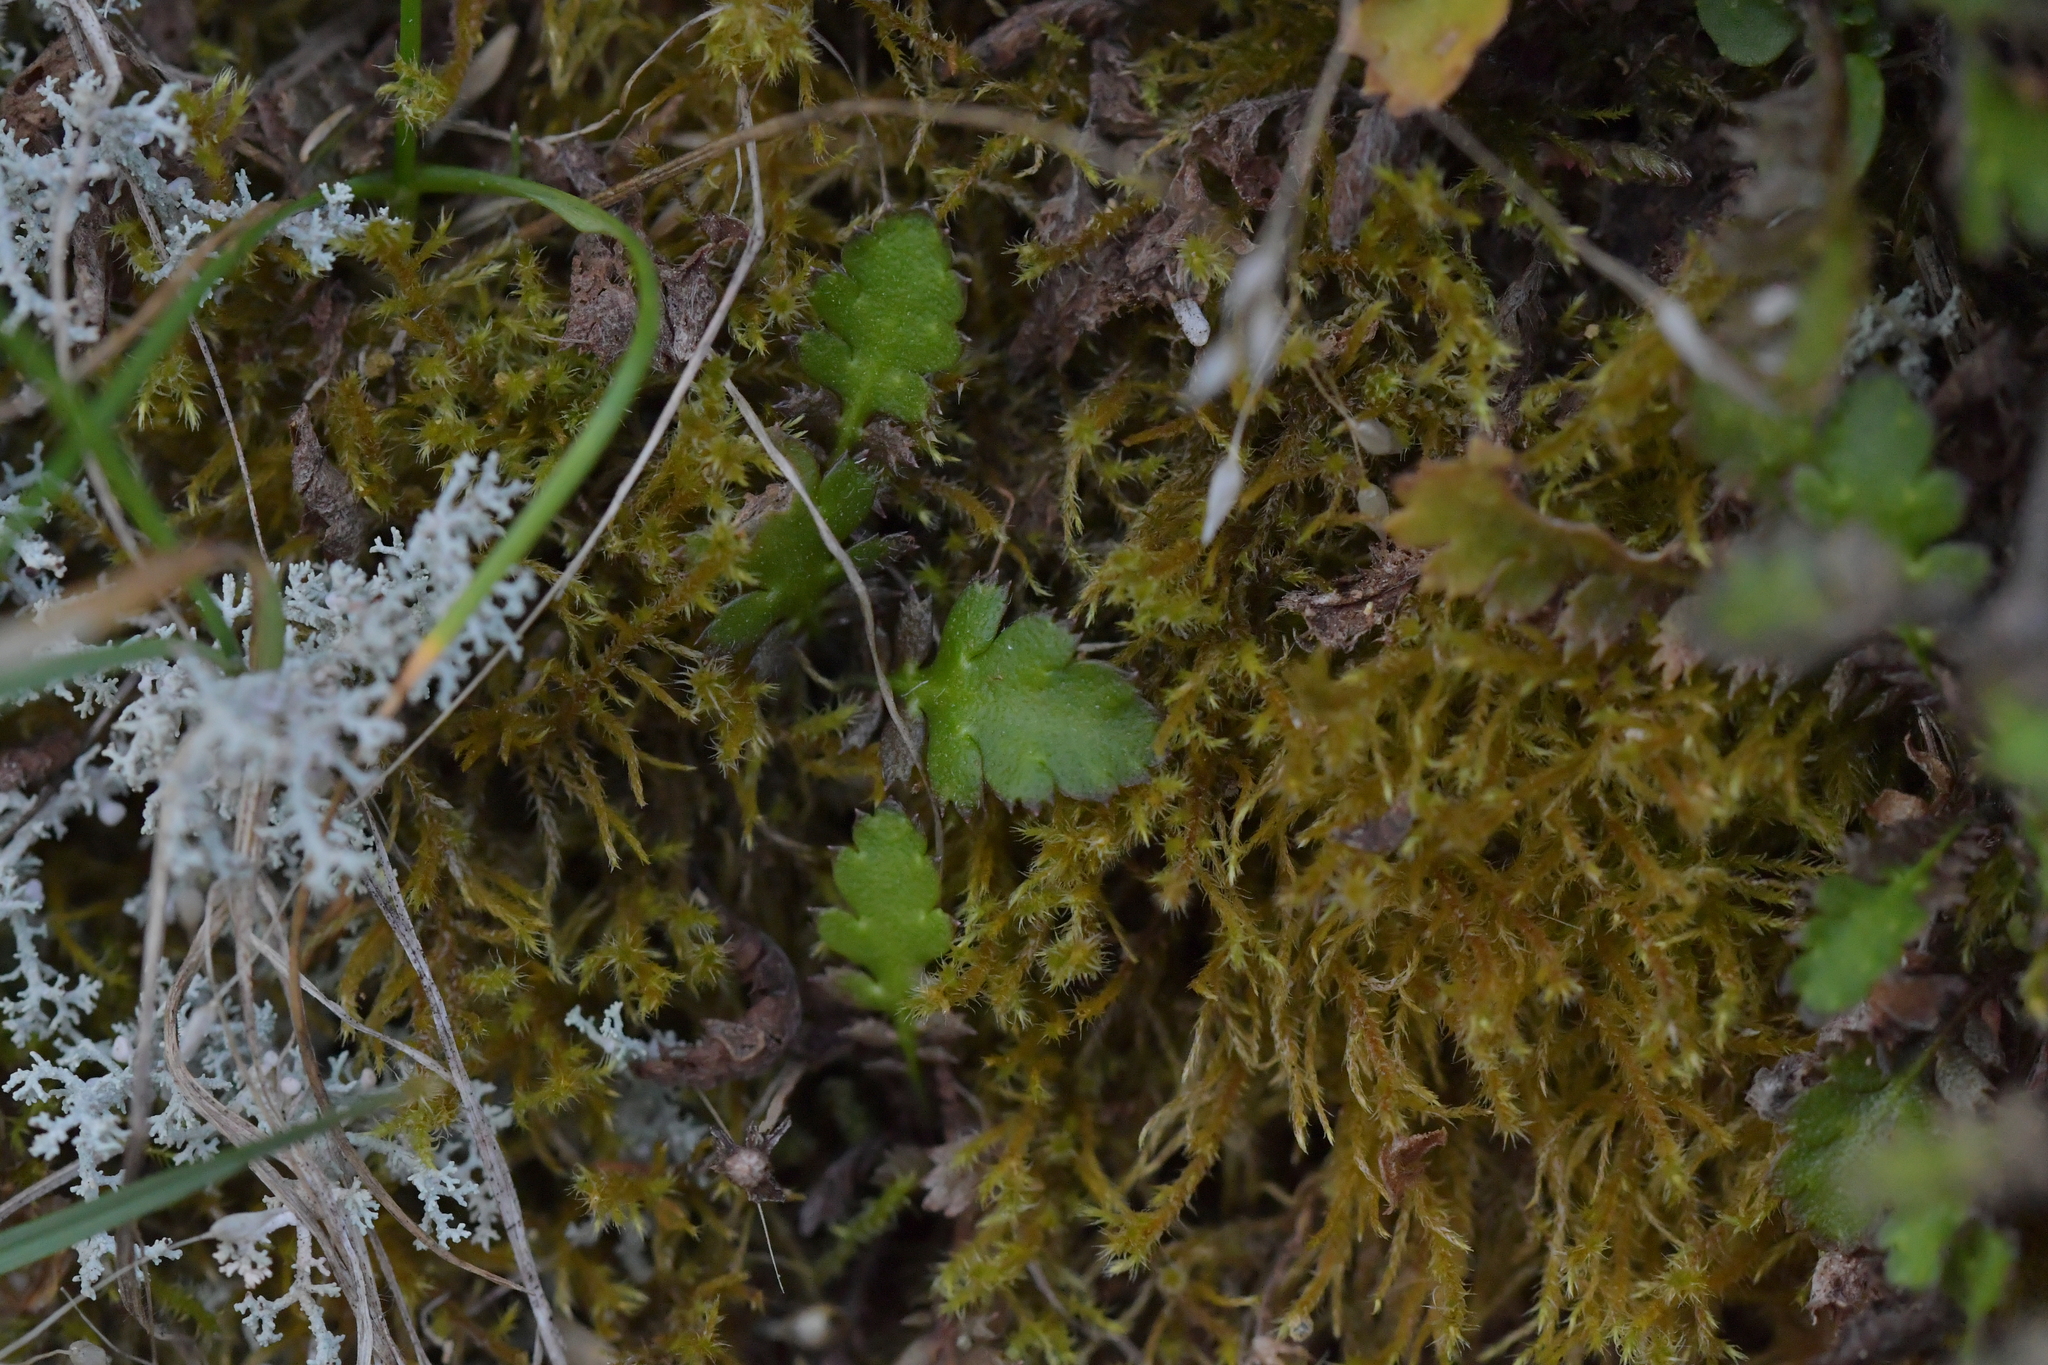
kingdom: Plantae
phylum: Tracheophyta
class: Magnoliopsida
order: Asterales
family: Asteraceae
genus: Leptinella
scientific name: Leptinella squalida
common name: New zealand brass-buttons
